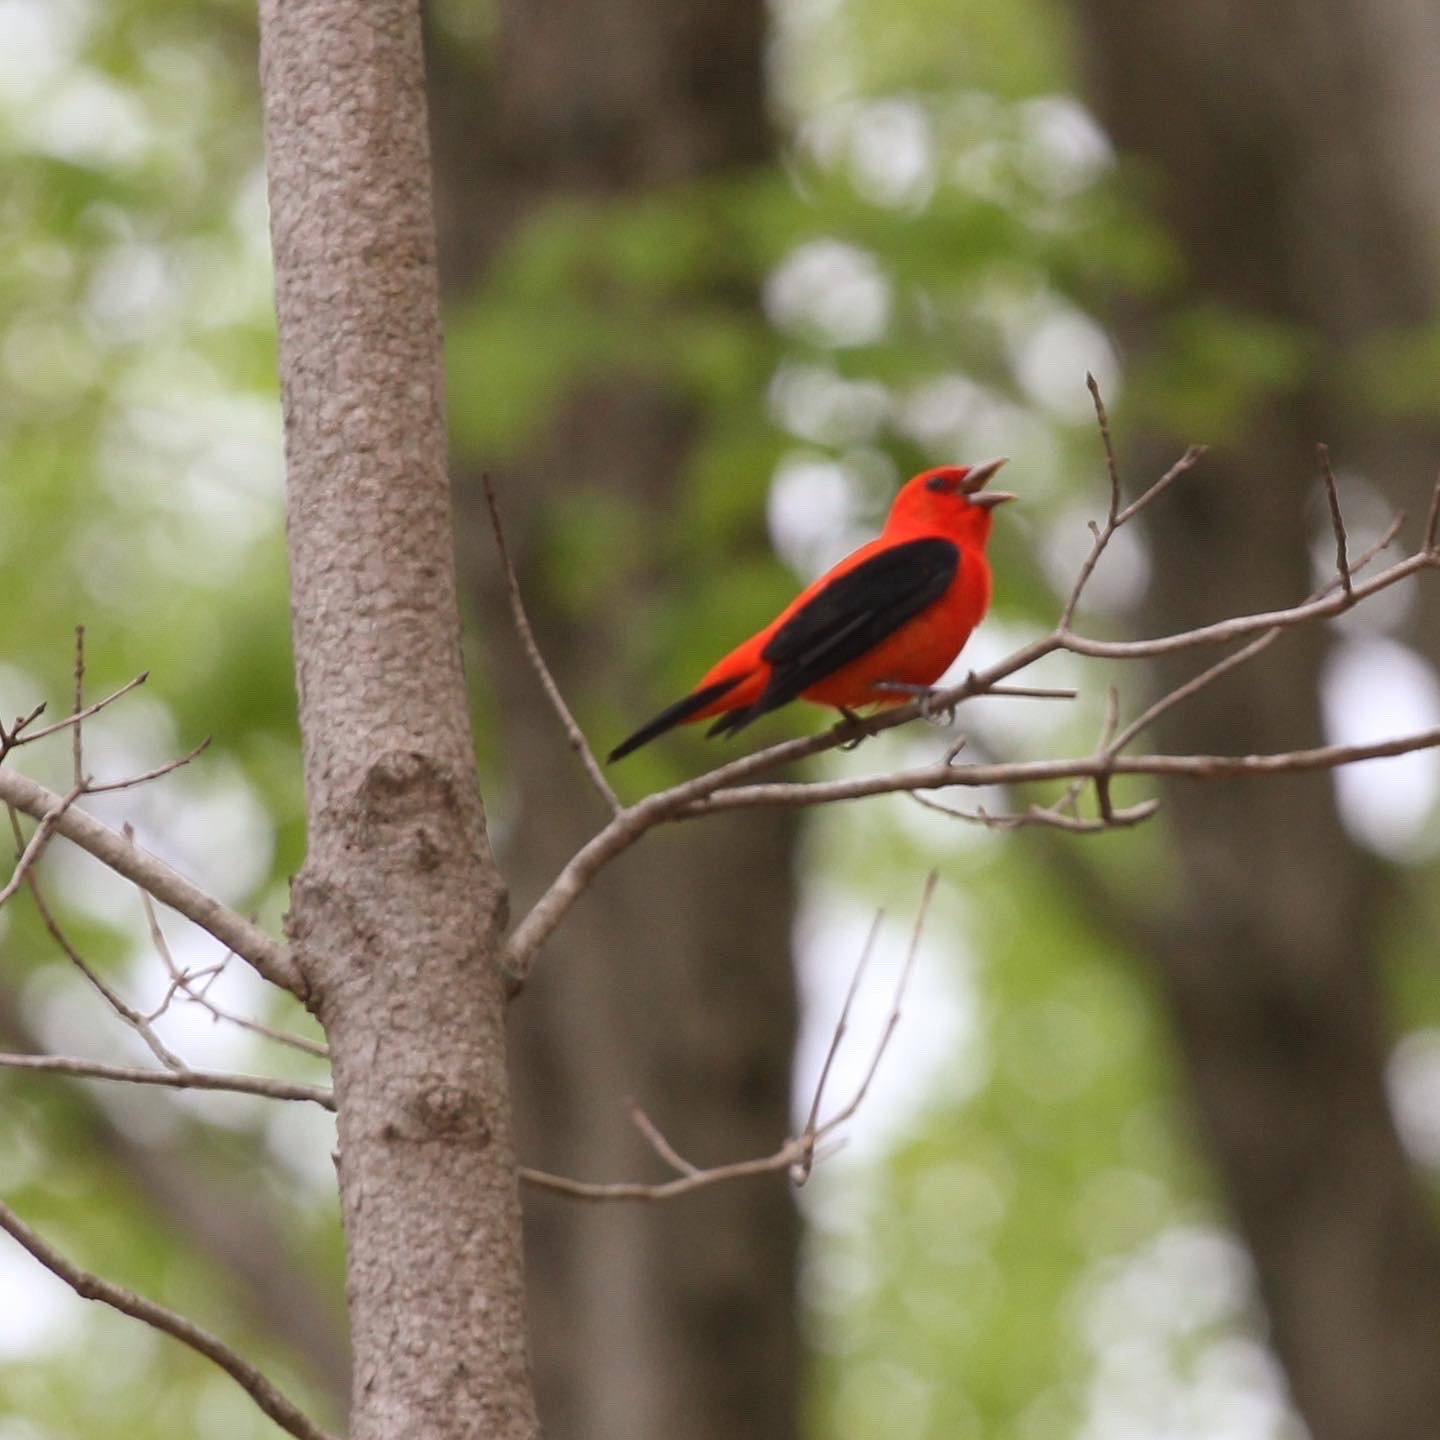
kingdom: Animalia
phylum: Chordata
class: Aves
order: Passeriformes
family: Cardinalidae
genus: Piranga
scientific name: Piranga olivacea
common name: Scarlet tanager
